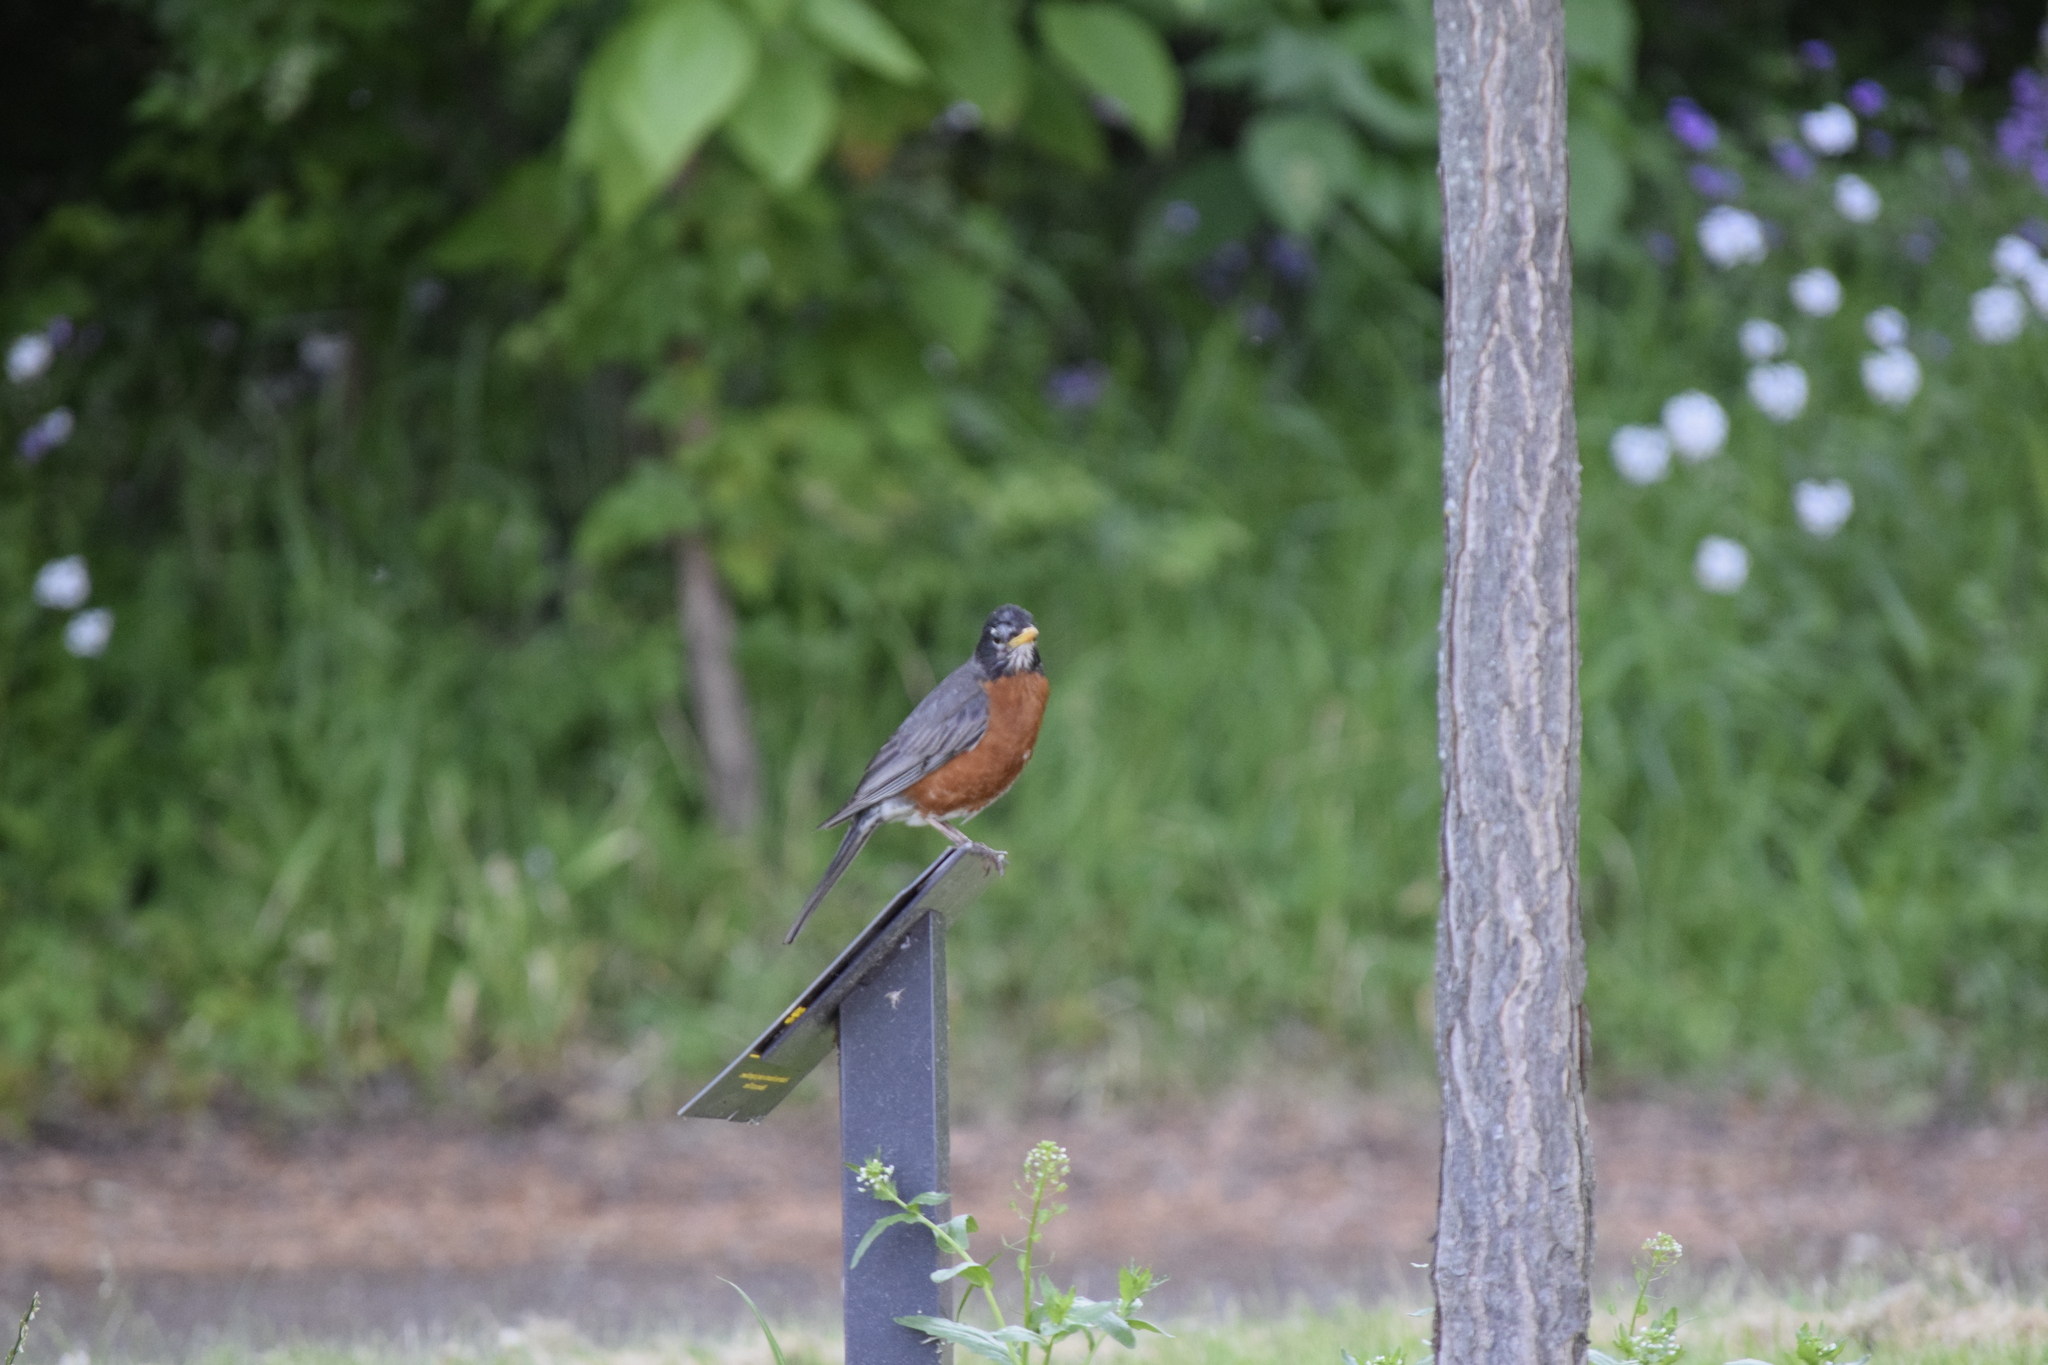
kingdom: Animalia
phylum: Chordata
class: Aves
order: Passeriformes
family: Turdidae
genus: Turdus
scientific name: Turdus migratorius
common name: American robin
